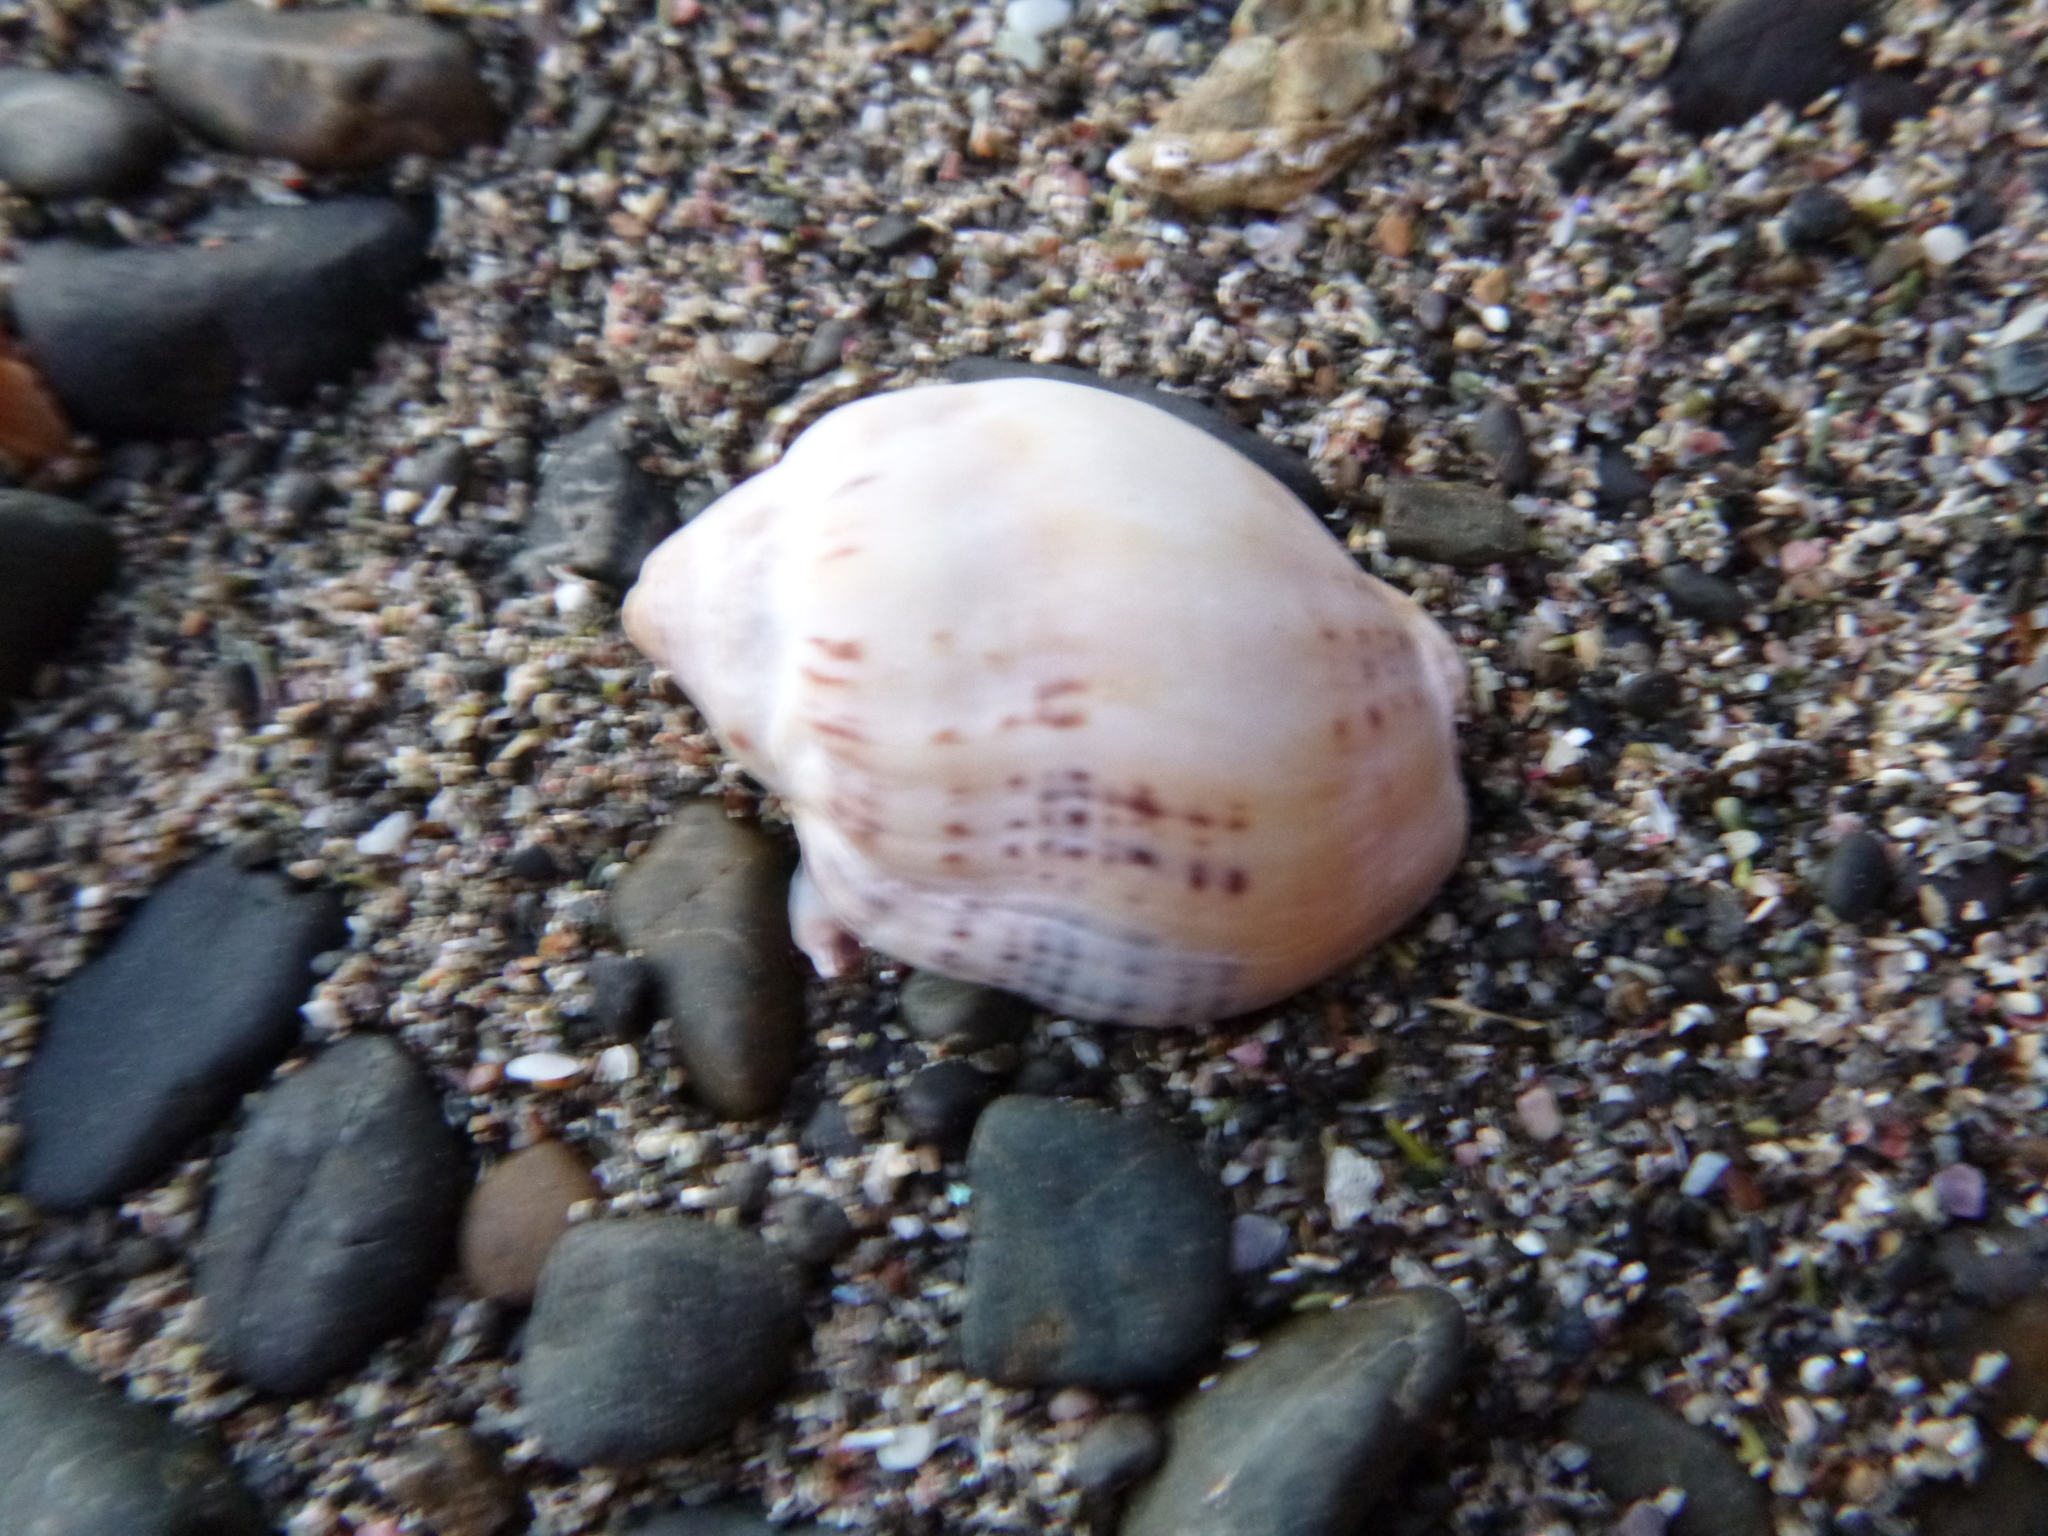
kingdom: Animalia
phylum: Mollusca
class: Gastropoda
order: Neogastropoda
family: Cominellidae
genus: Cominella
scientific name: Cominella adspersa
